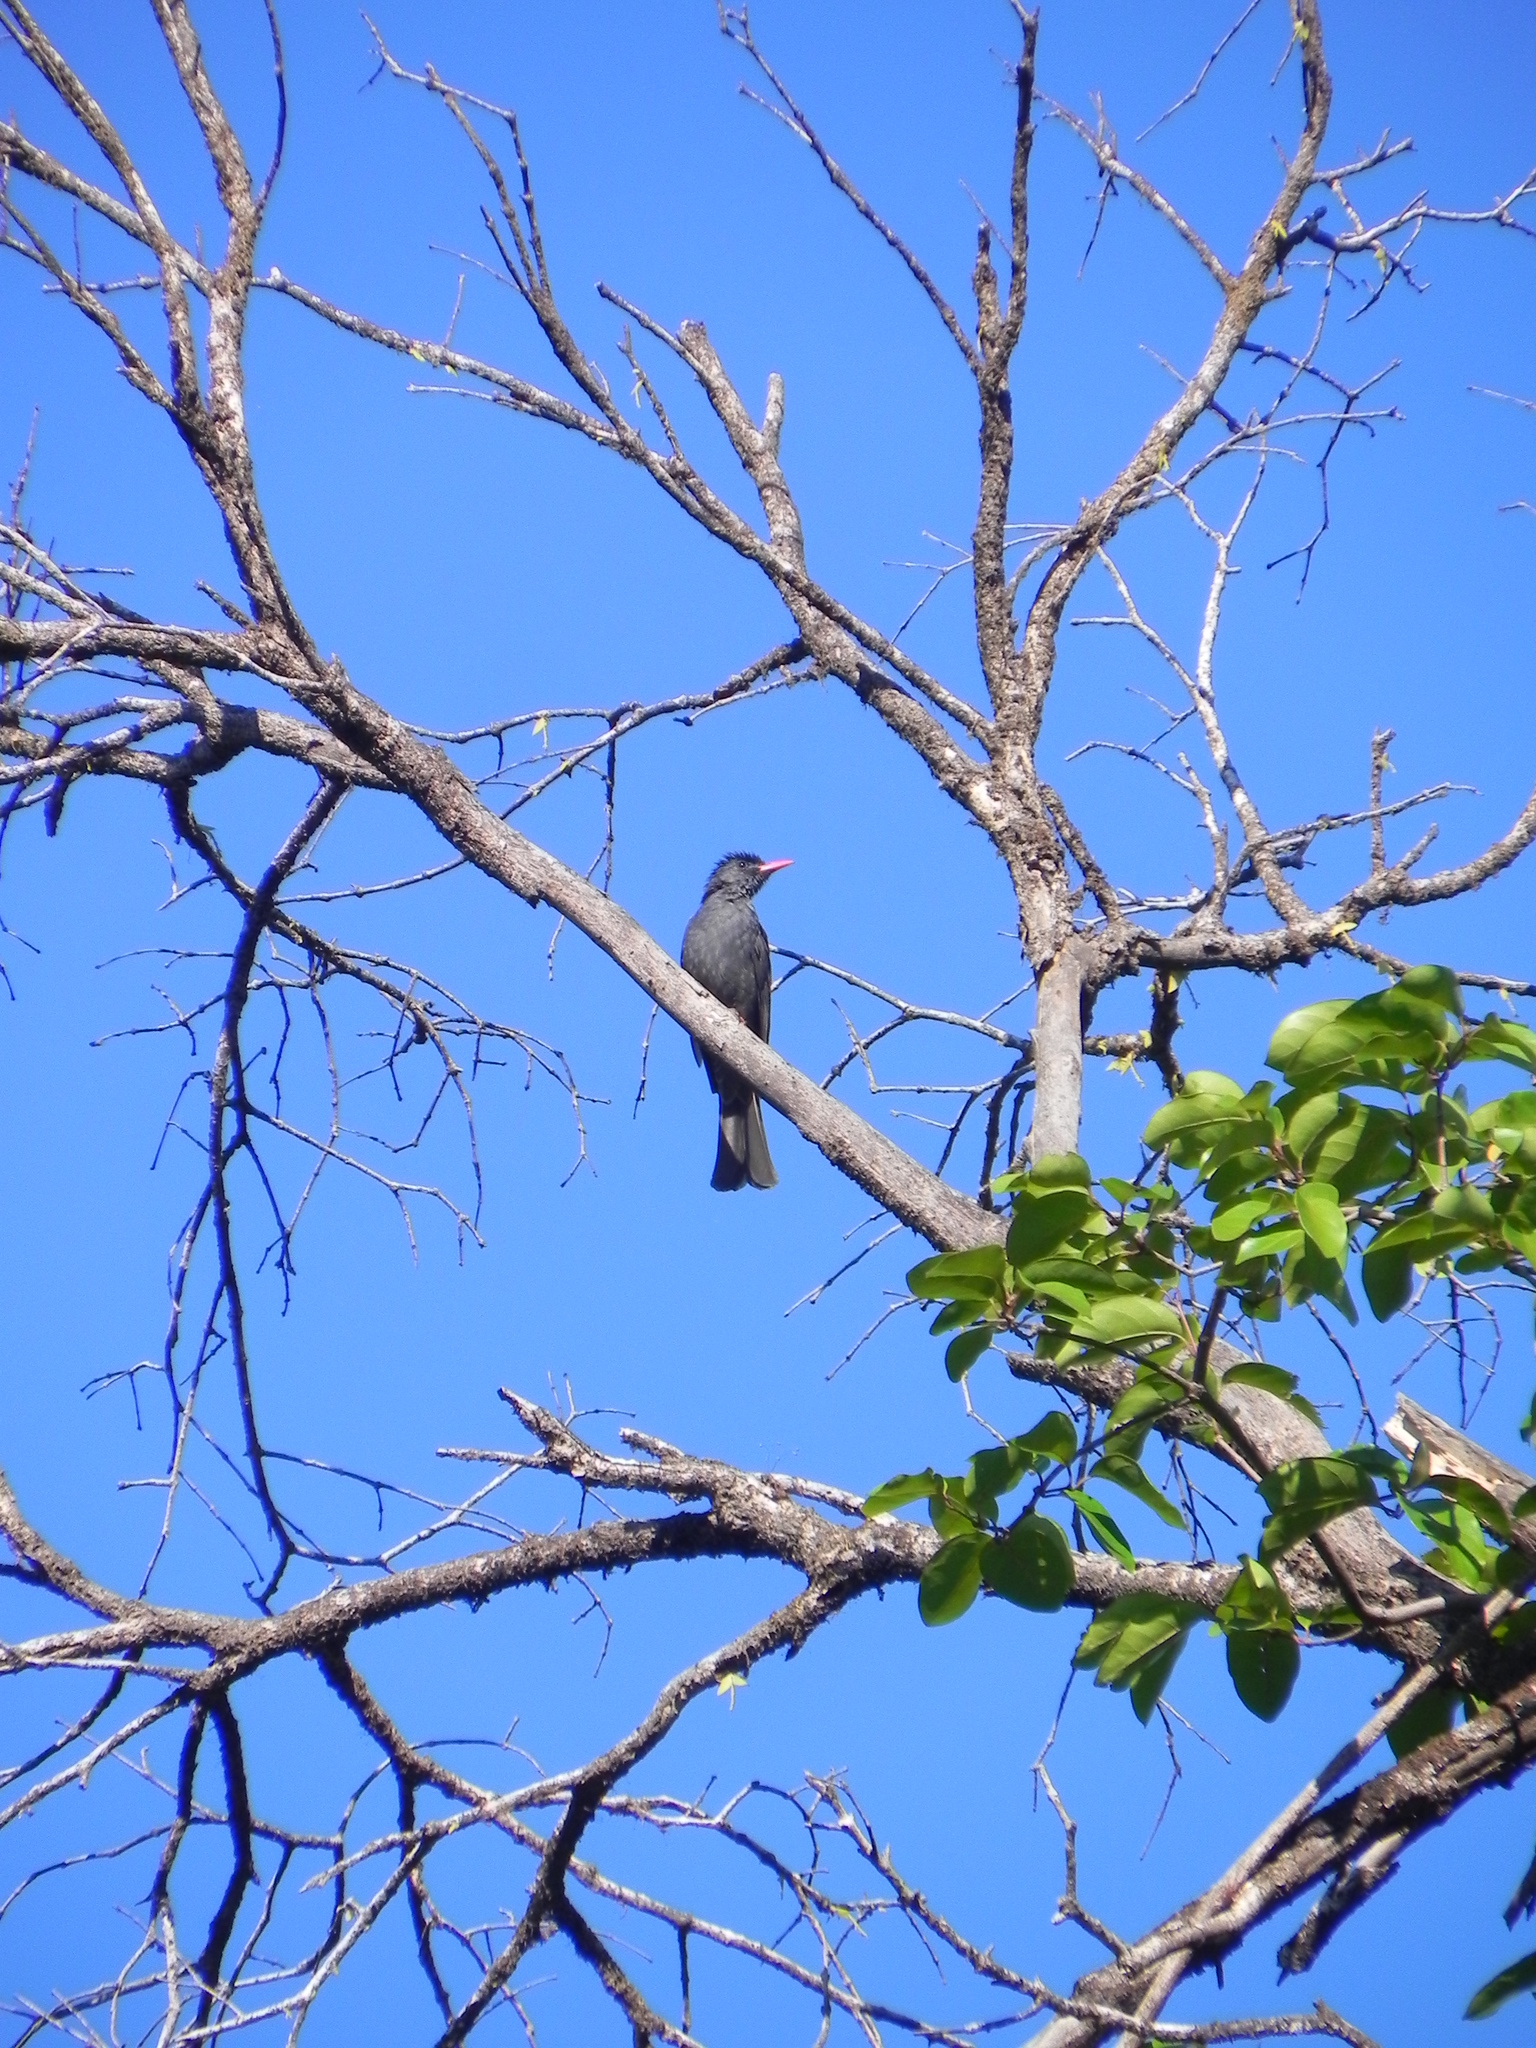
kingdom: Animalia
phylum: Chordata
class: Aves
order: Passeriformes
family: Pycnonotidae
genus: Hypsipetes
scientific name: Hypsipetes ganeesa
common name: Square-tailed bulbul
